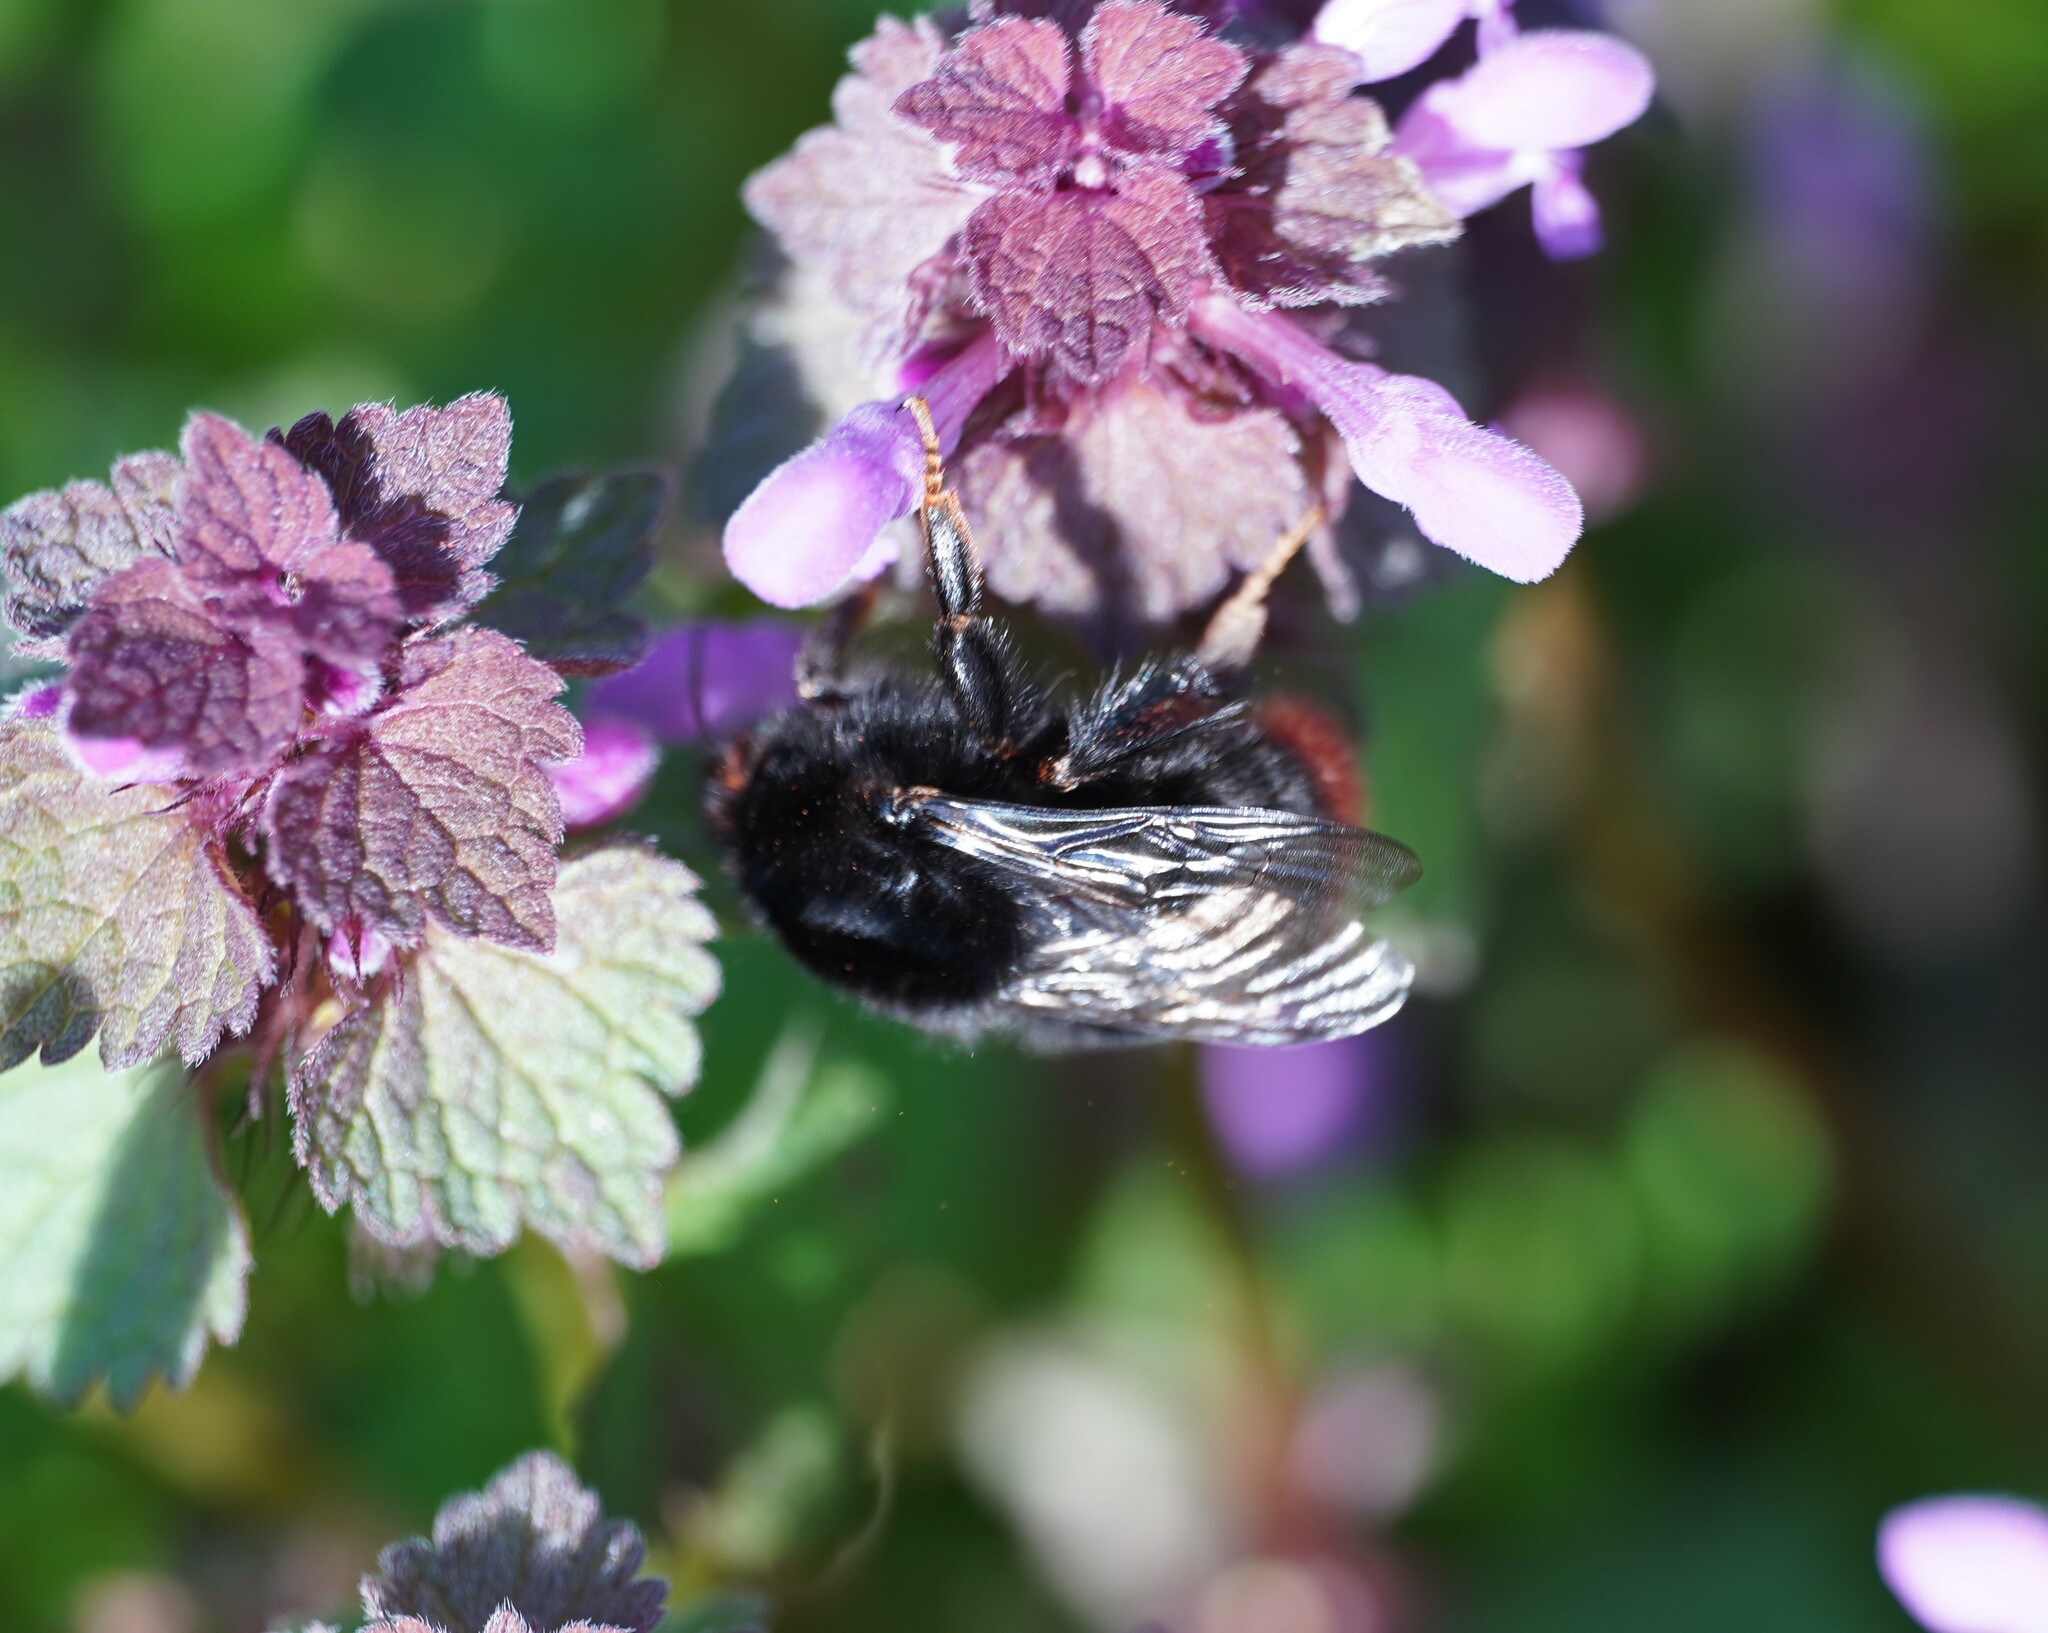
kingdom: Animalia
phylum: Arthropoda
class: Insecta
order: Hymenoptera
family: Apidae
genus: Bombus
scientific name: Bombus lapidarius
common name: Large red-tailed humble-bee
